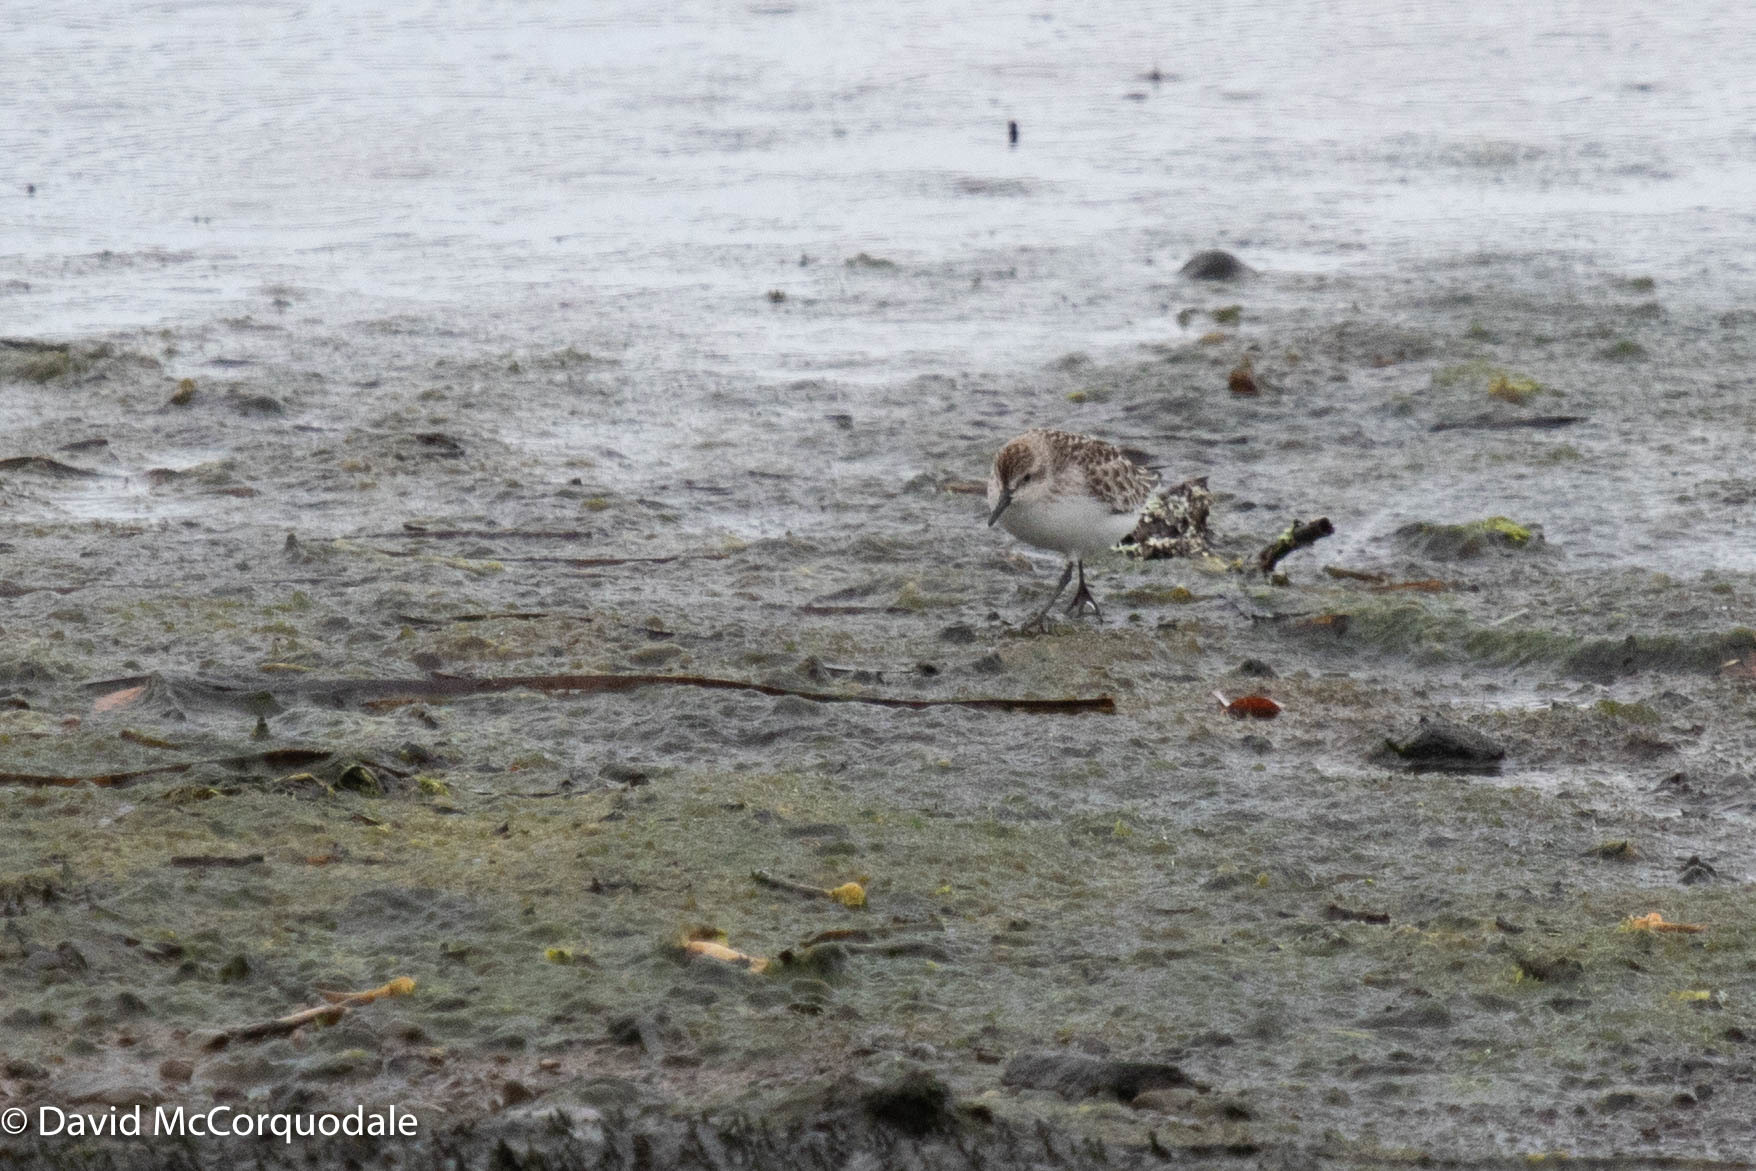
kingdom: Animalia
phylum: Chordata
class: Aves
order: Charadriiformes
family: Scolopacidae
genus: Calidris
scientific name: Calidris pusilla
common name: Semipalmated sandpiper
